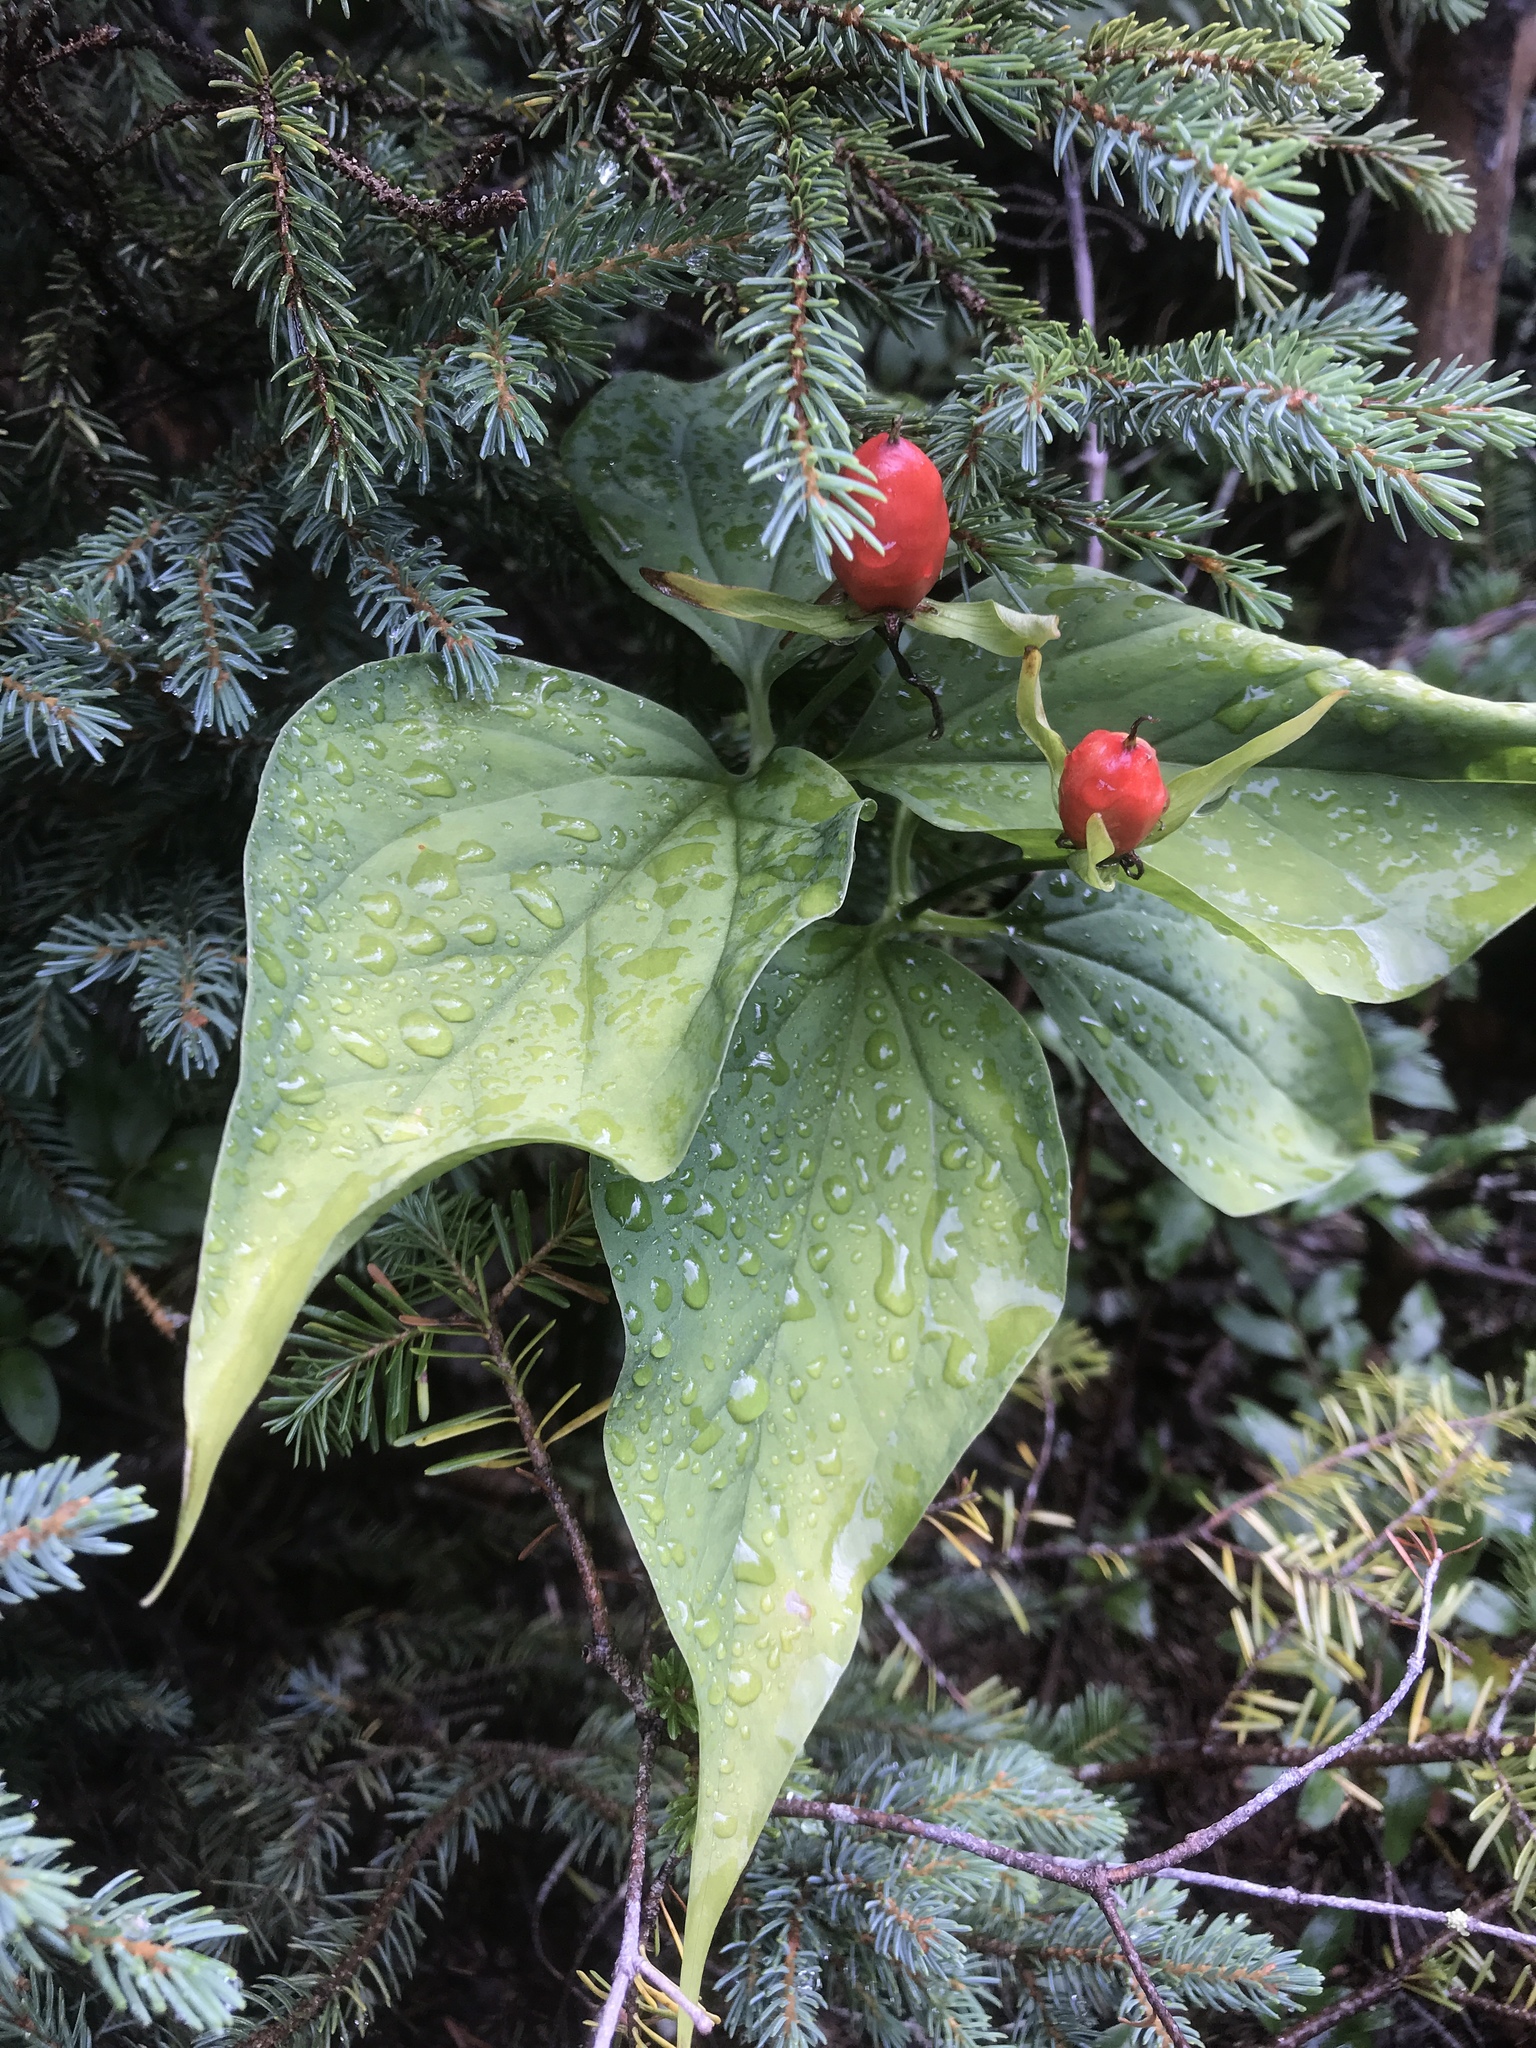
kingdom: Plantae
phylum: Tracheophyta
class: Liliopsida
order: Liliales
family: Melanthiaceae
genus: Trillium
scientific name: Trillium undulatum
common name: Paint trillium
